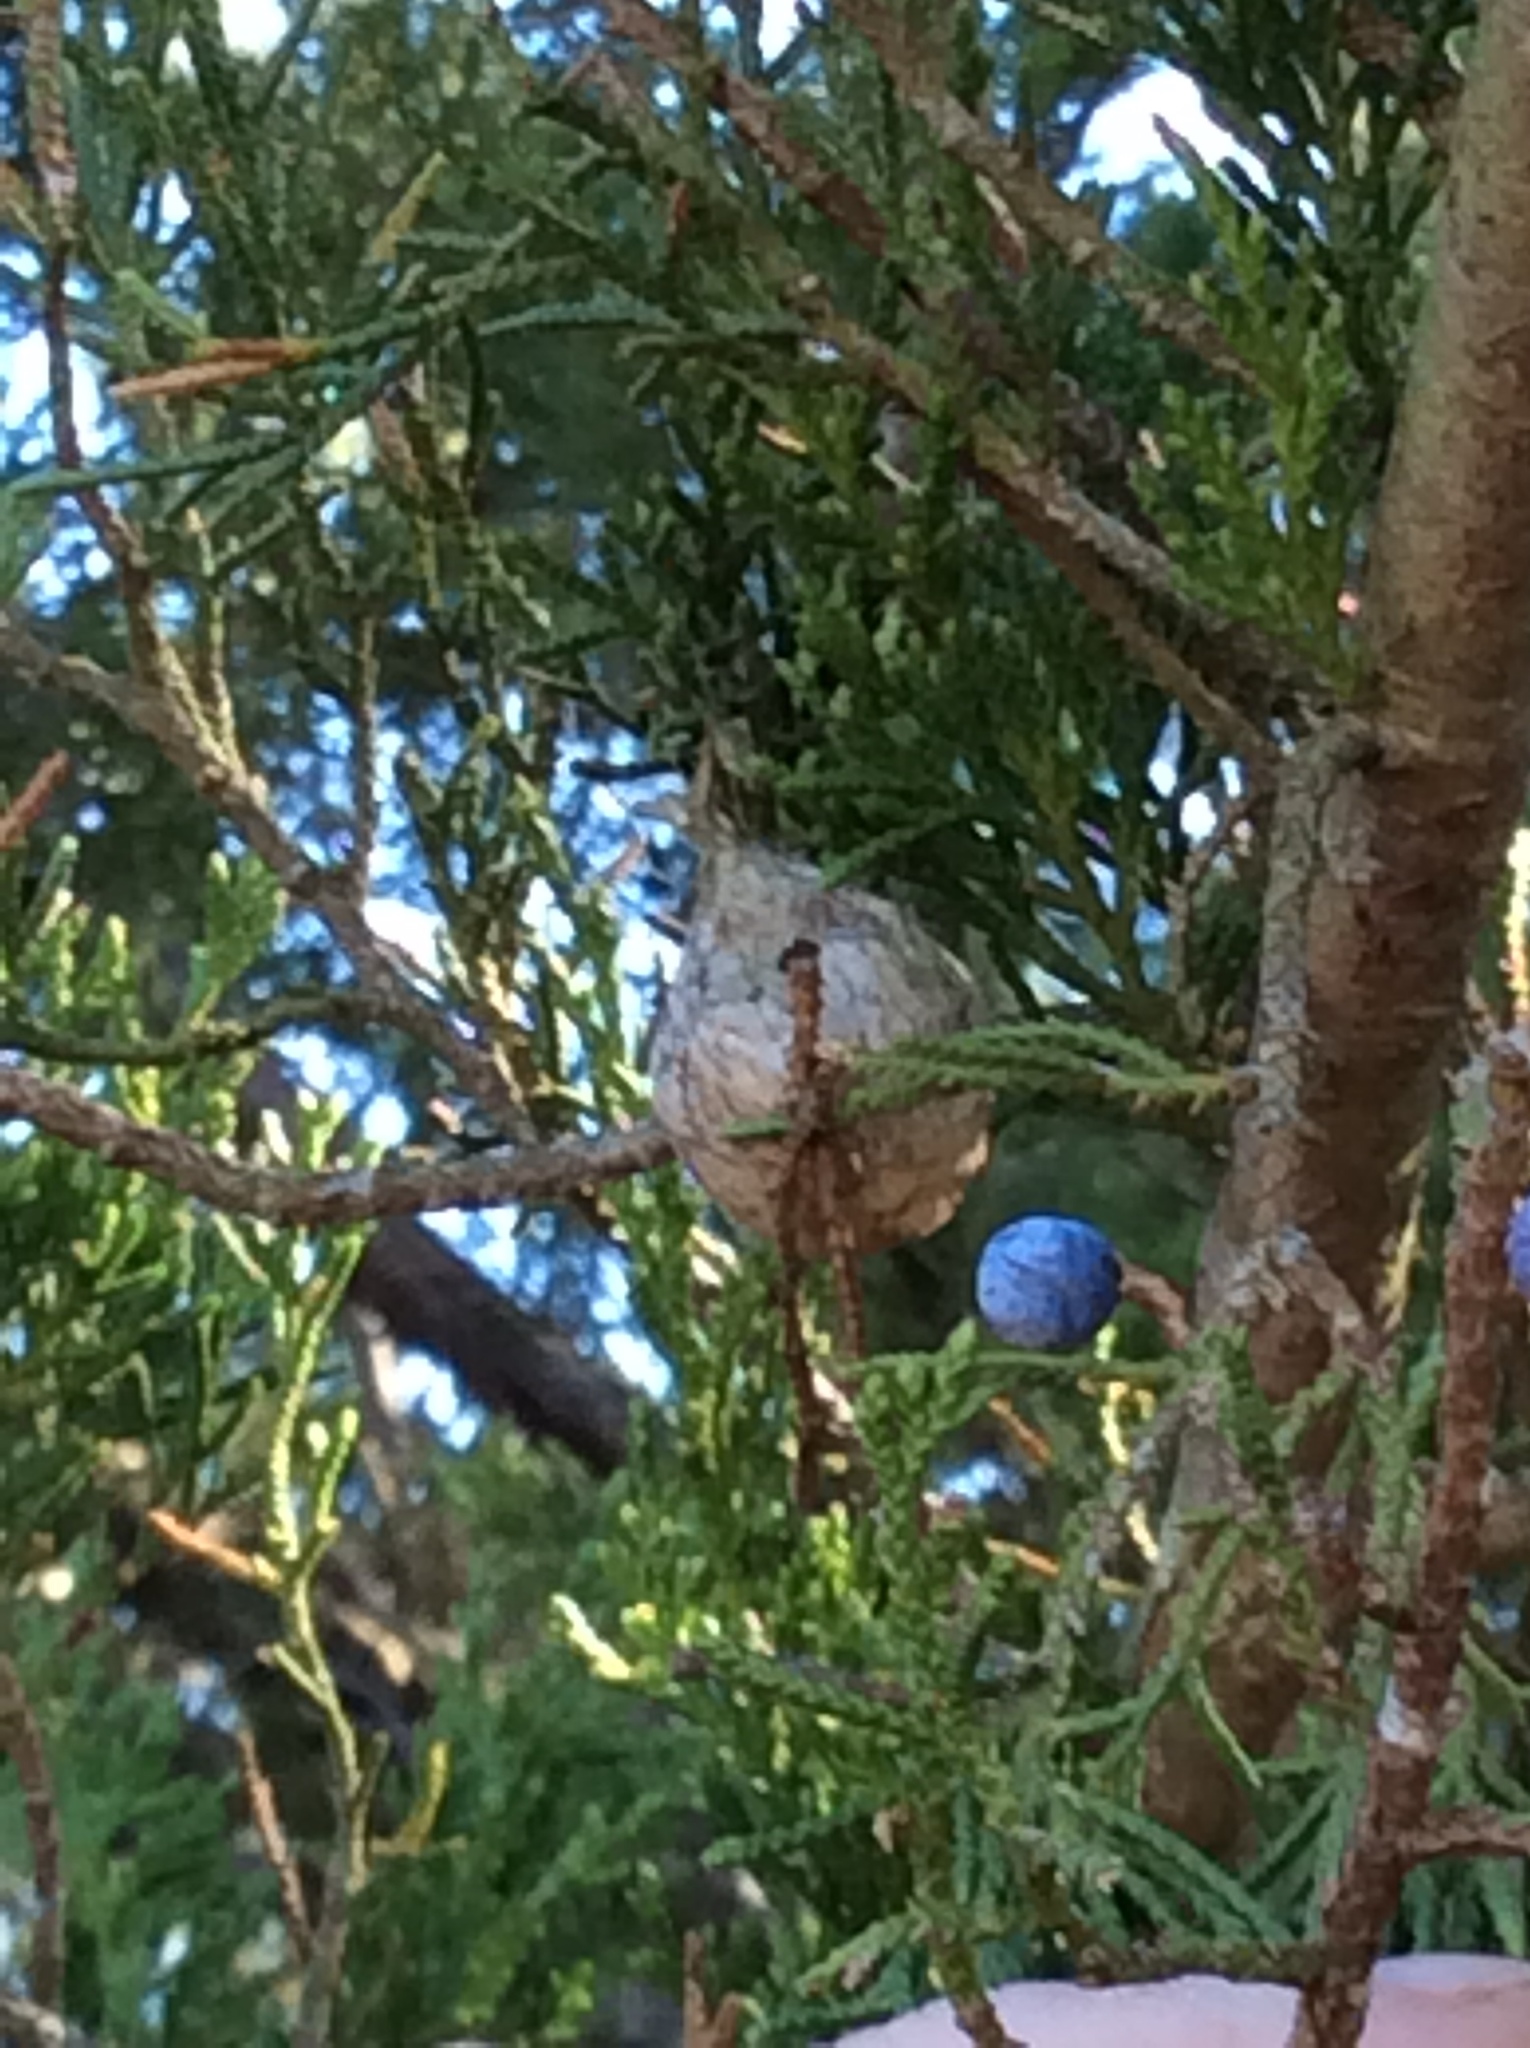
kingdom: Animalia
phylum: Arthropoda
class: Arachnida
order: Araneae
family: Araneidae
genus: Argiope
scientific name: Argiope aurantia
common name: Orb weavers
